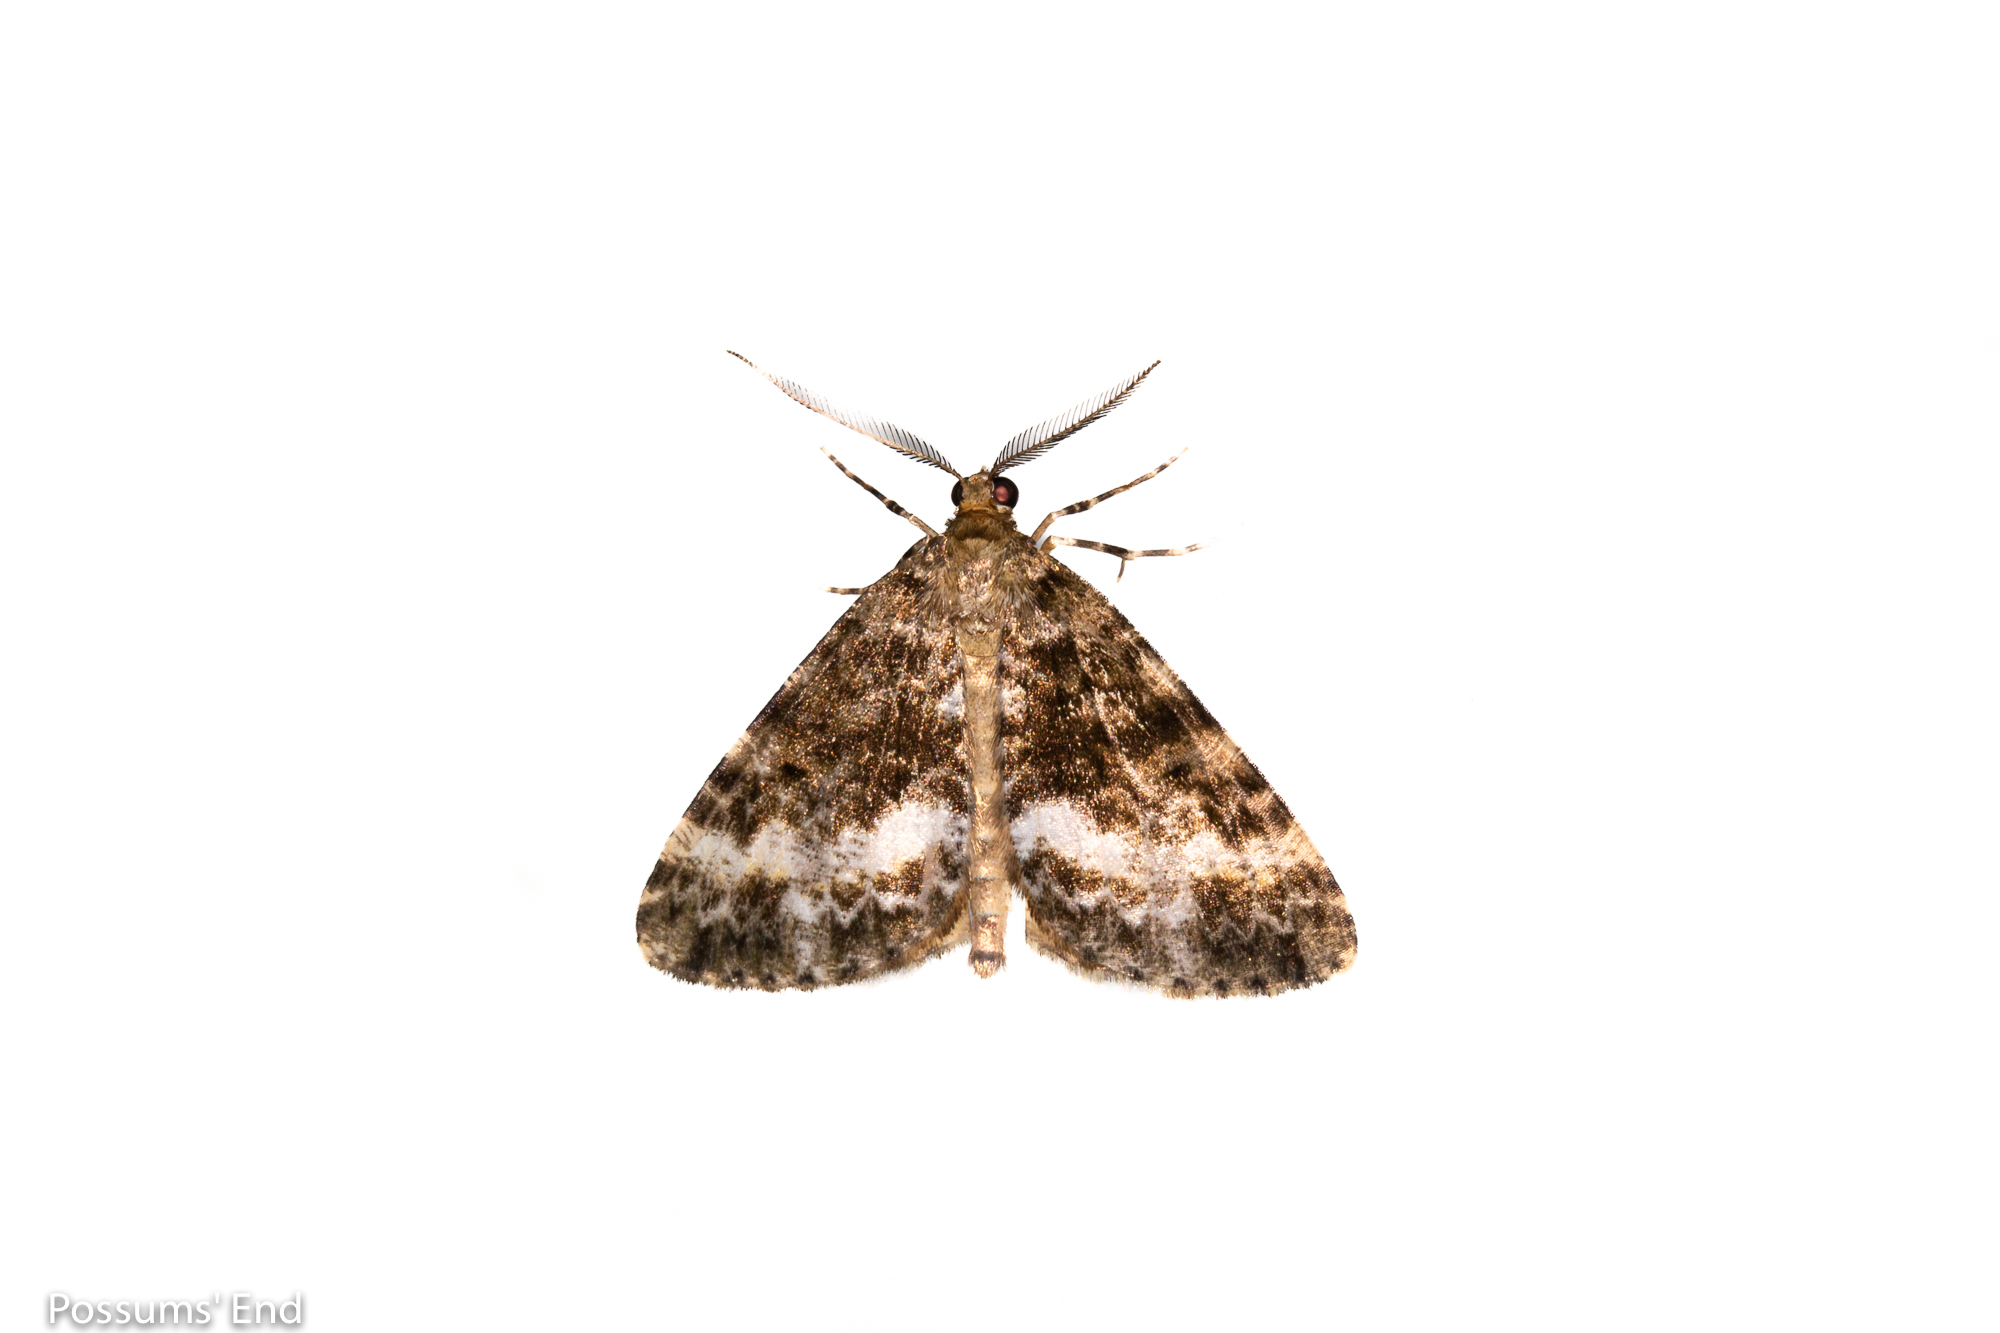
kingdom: Animalia
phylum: Arthropoda
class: Insecta
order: Lepidoptera
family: Geometridae
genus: Pseudocoremia
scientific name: Pseudocoremia lactiflua
